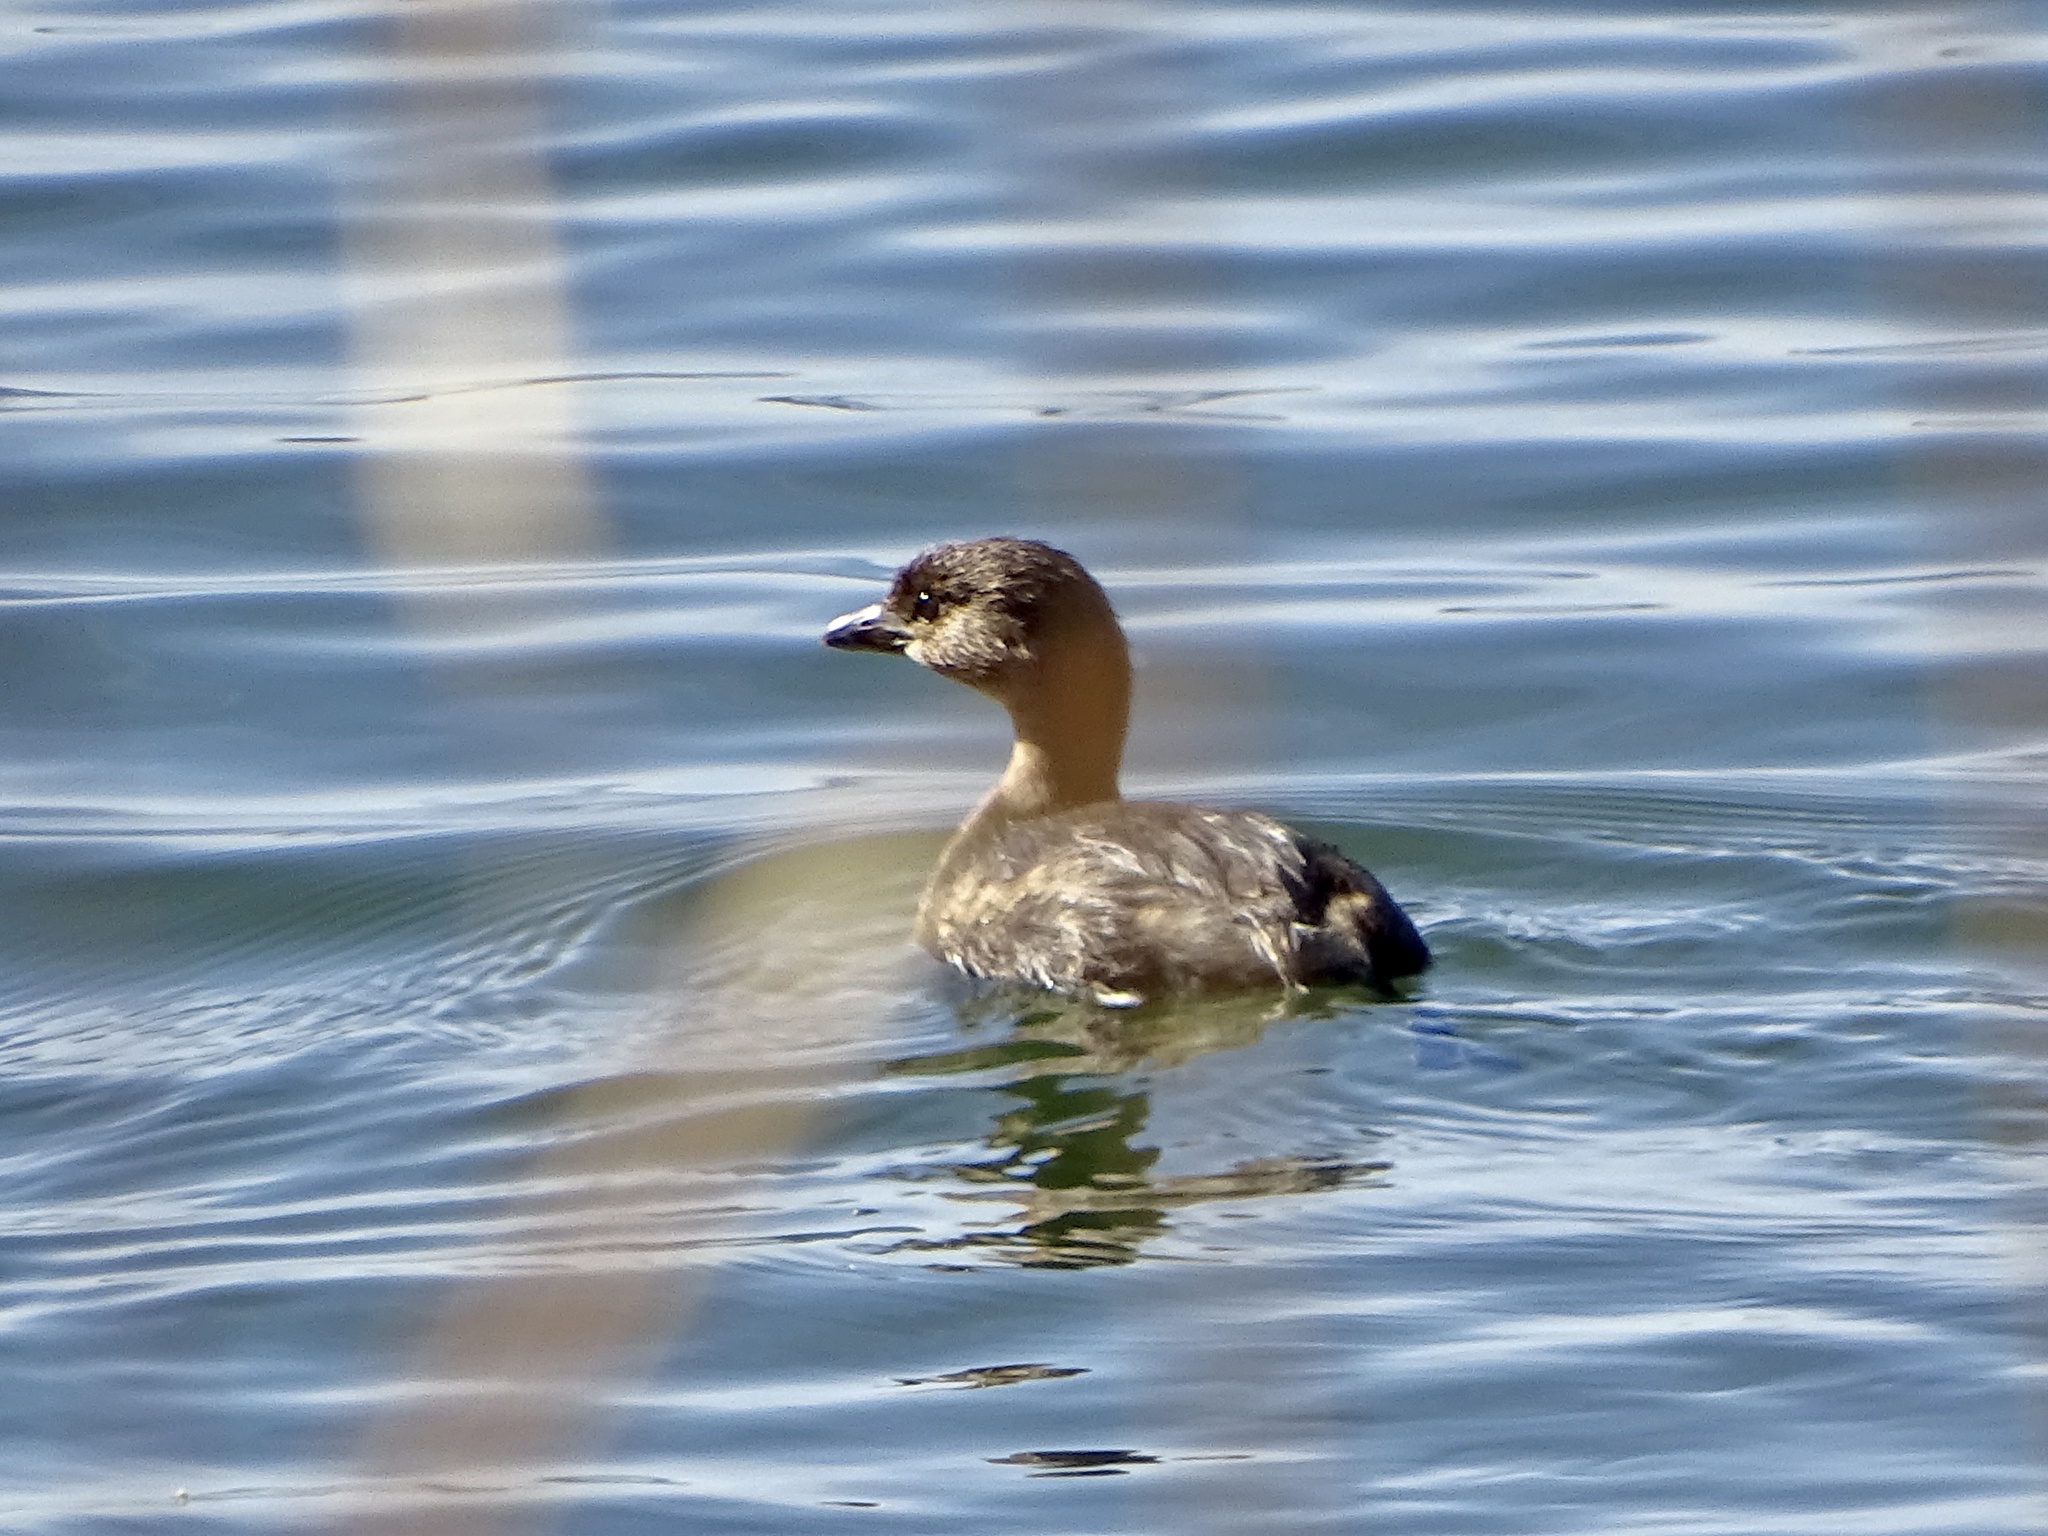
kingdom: Animalia
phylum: Chordata
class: Aves
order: Podicipediformes
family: Podicipedidae
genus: Podilymbus
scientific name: Podilymbus podiceps
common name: Pied-billed grebe
